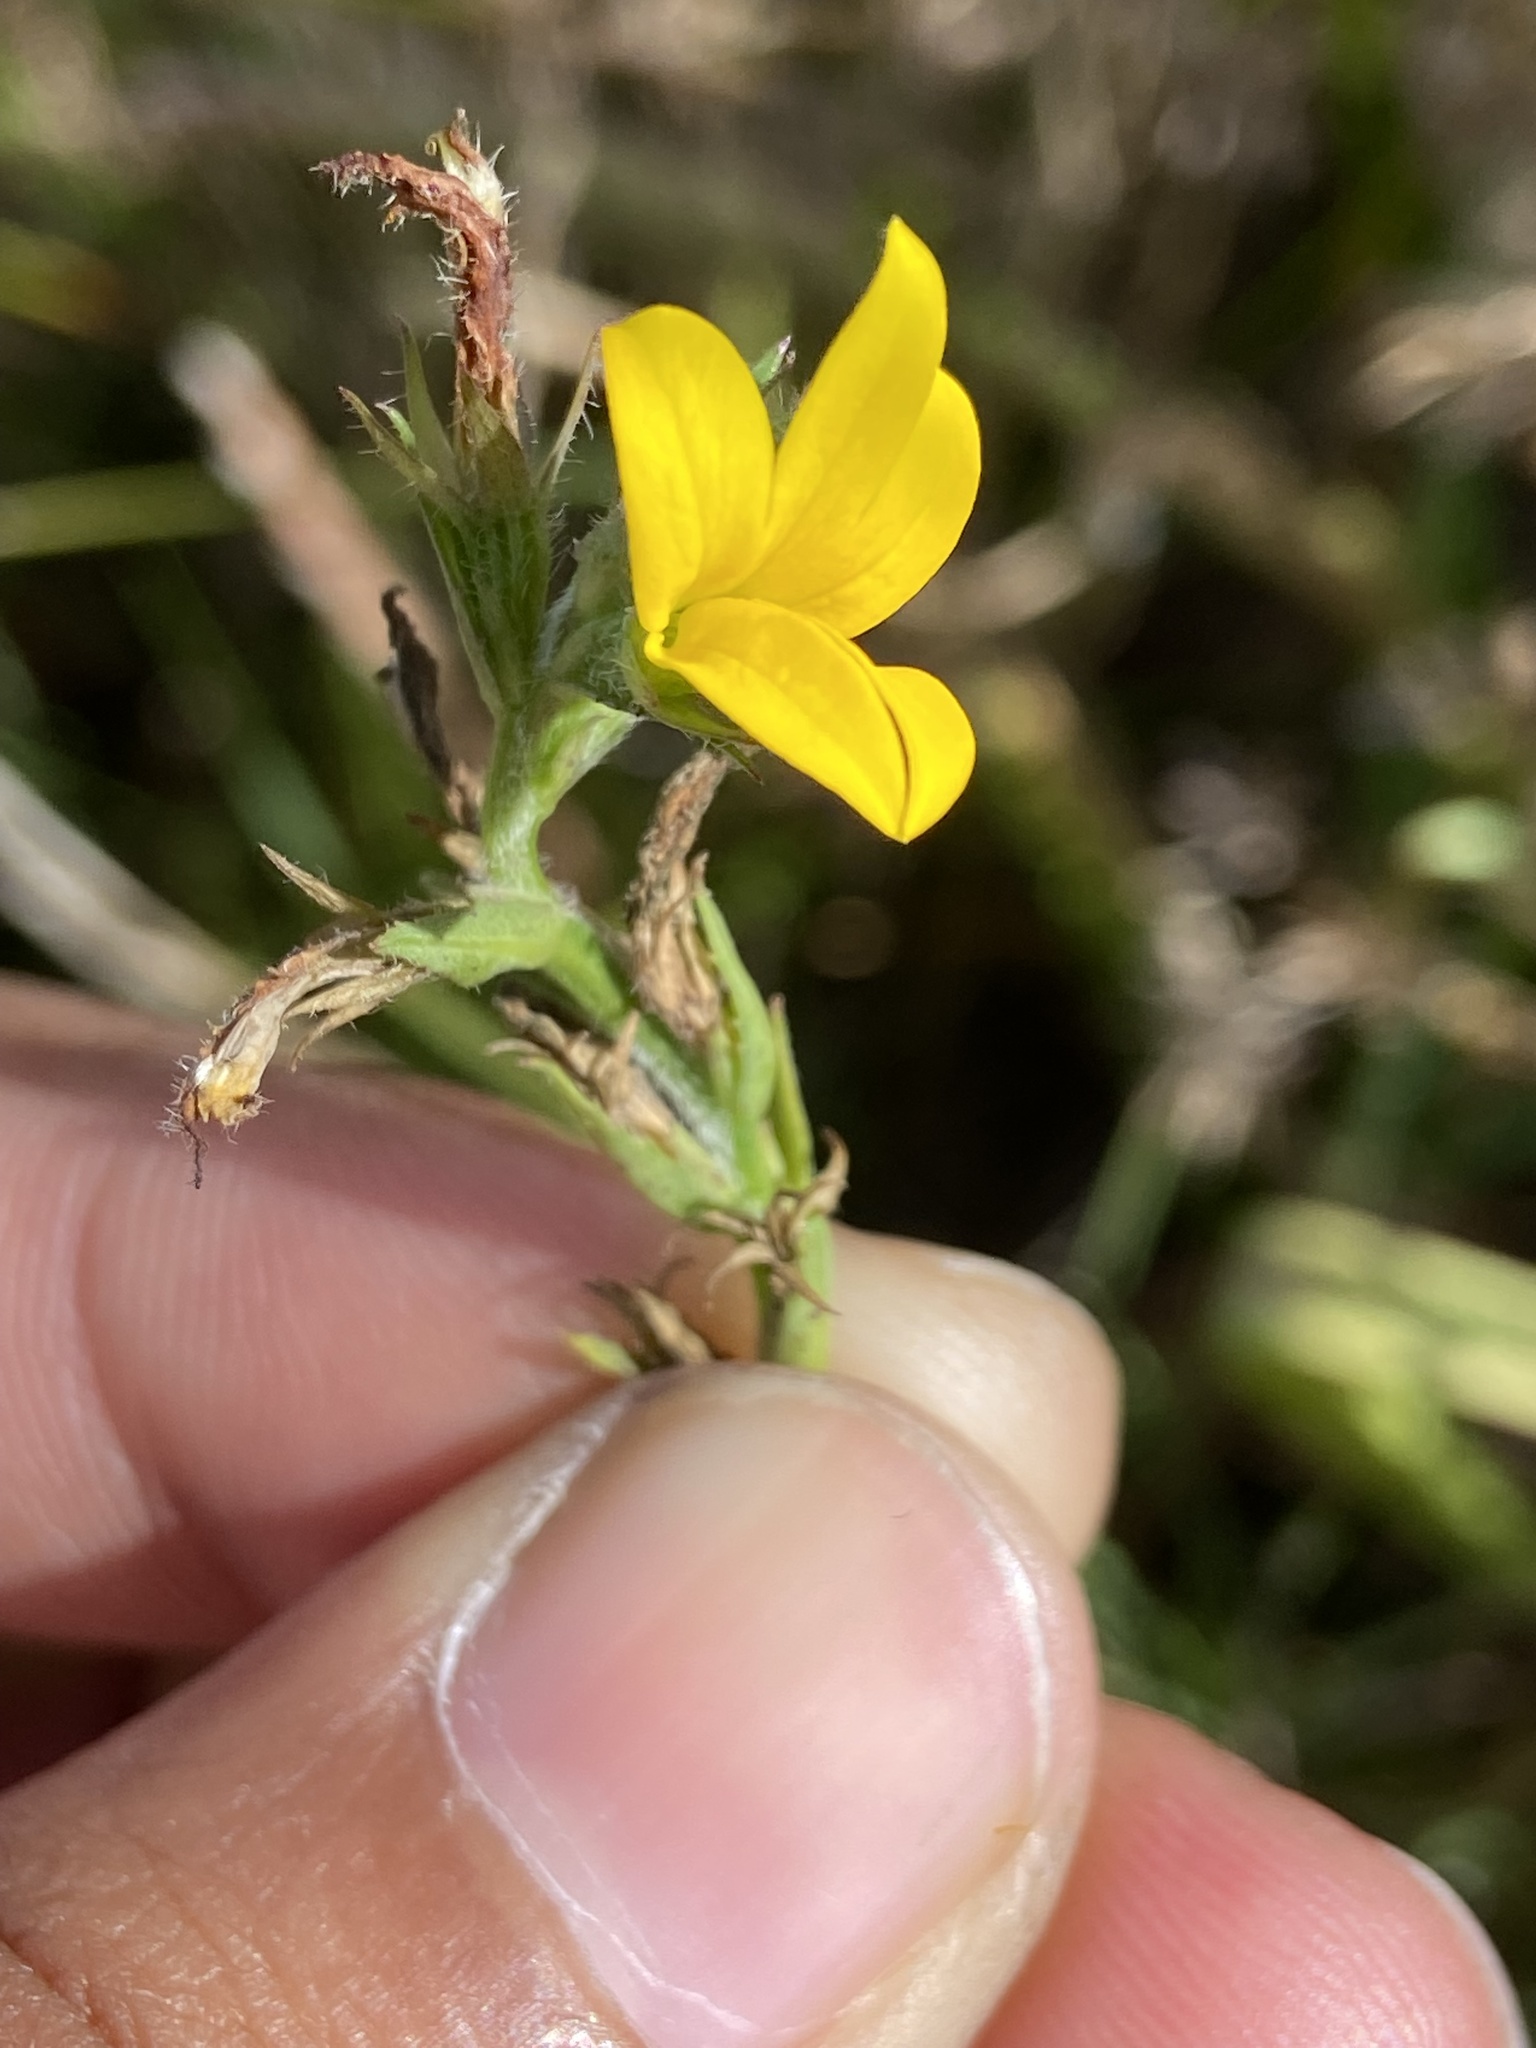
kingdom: Plantae
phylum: Tracheophyta
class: Magnoliopsida
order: Asterales
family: Campanulaceae
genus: Monopsis
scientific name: Monopsis lutea
